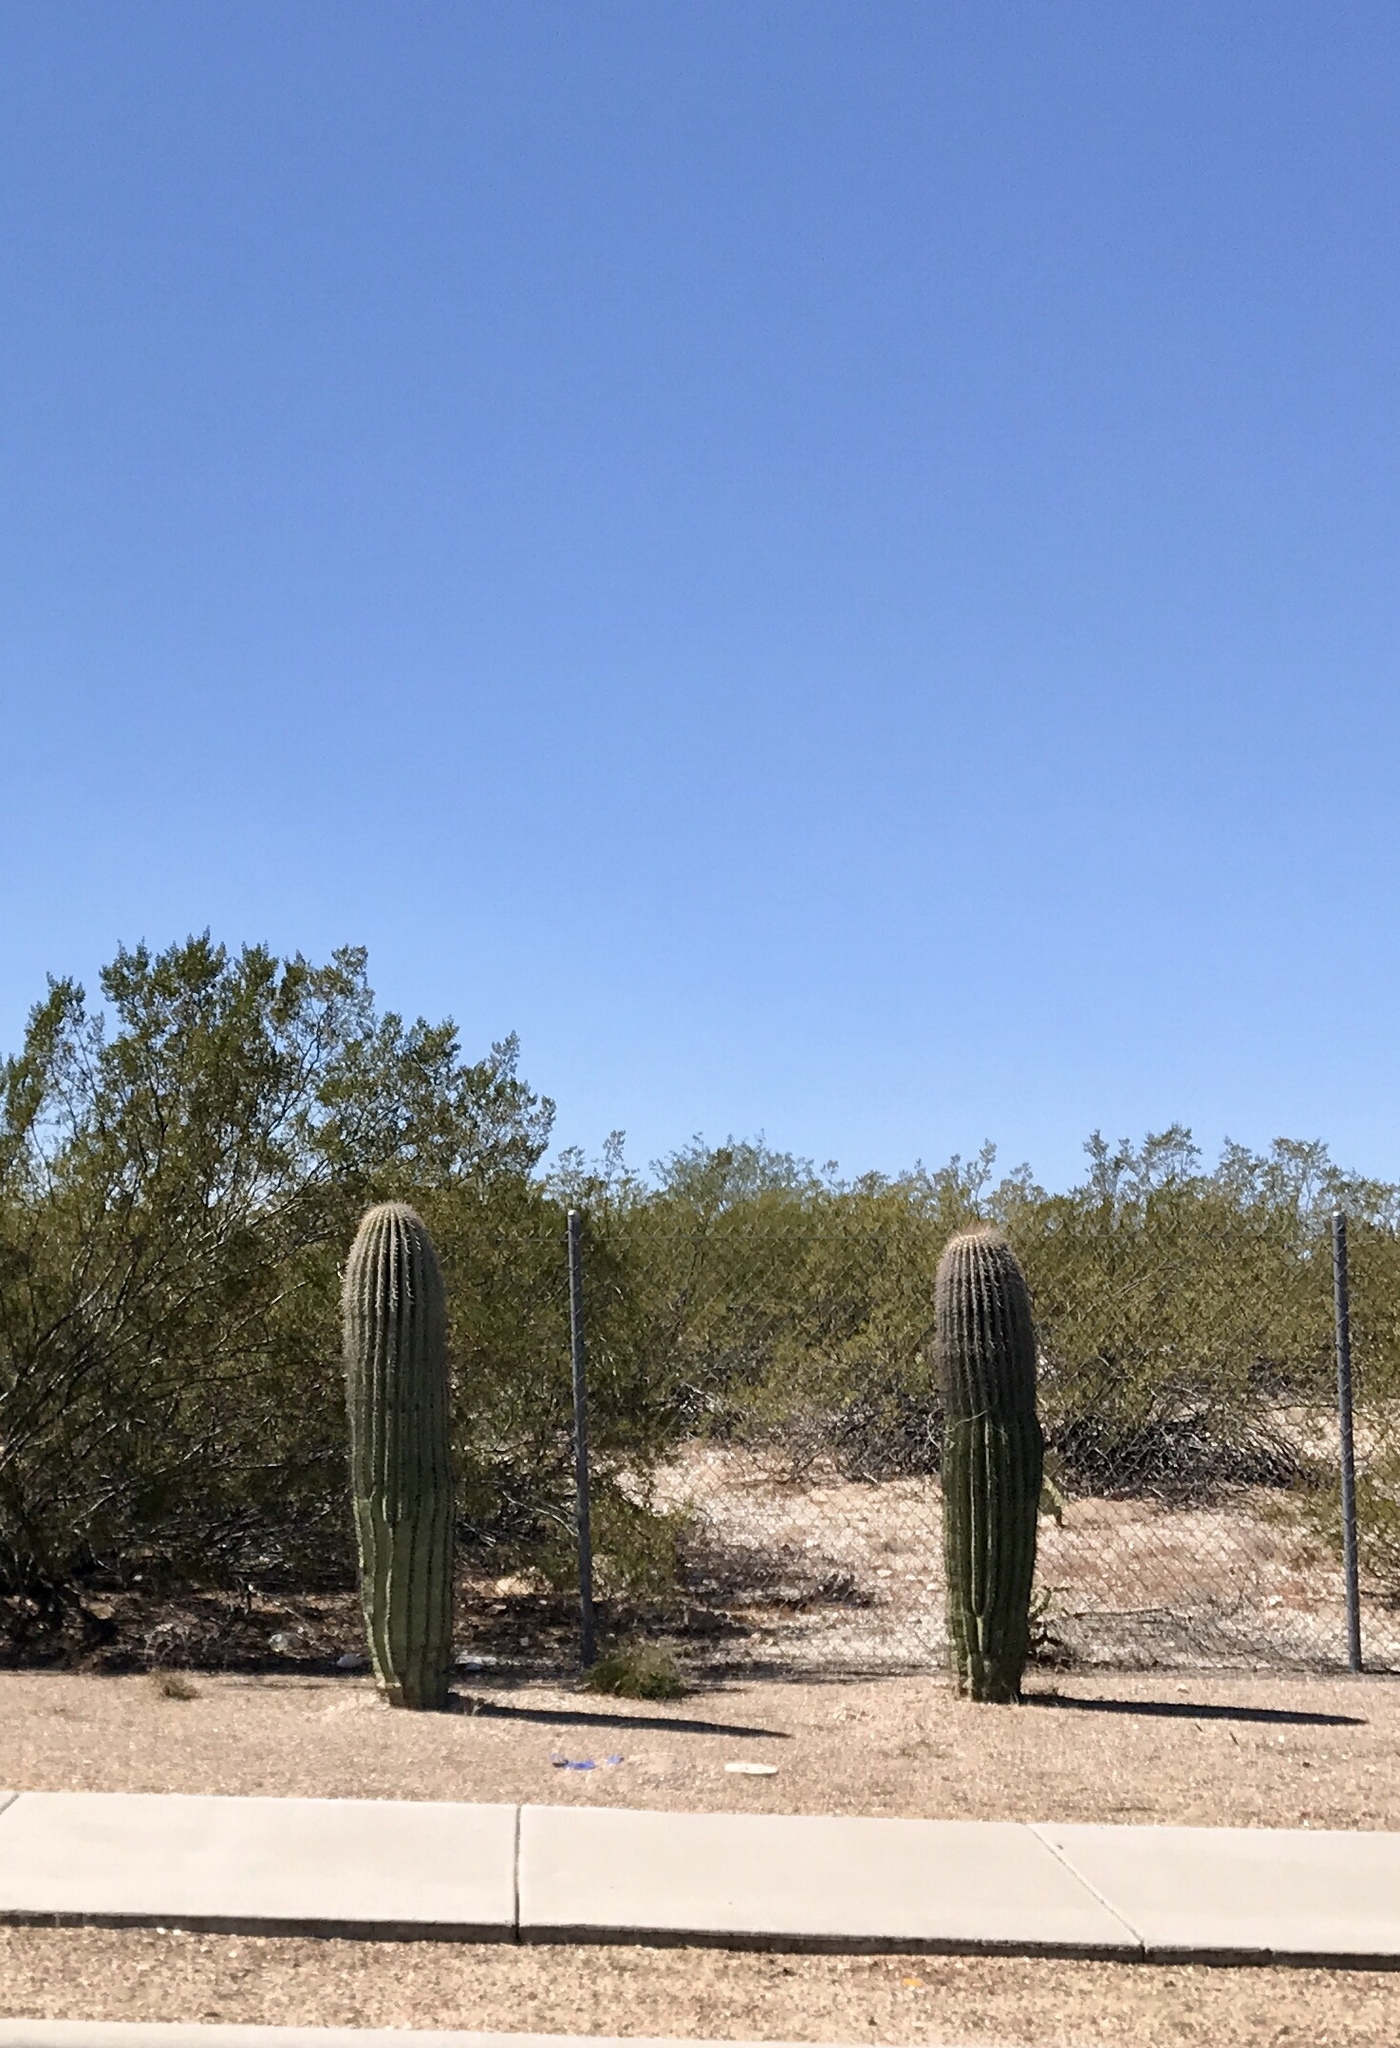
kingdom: Plantae
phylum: Tracheophyta
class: Magnoliopsida
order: Caryophyllales
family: Cactaceae
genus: Carnegiea
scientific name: Carnegiea gigantea
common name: Saguaro
